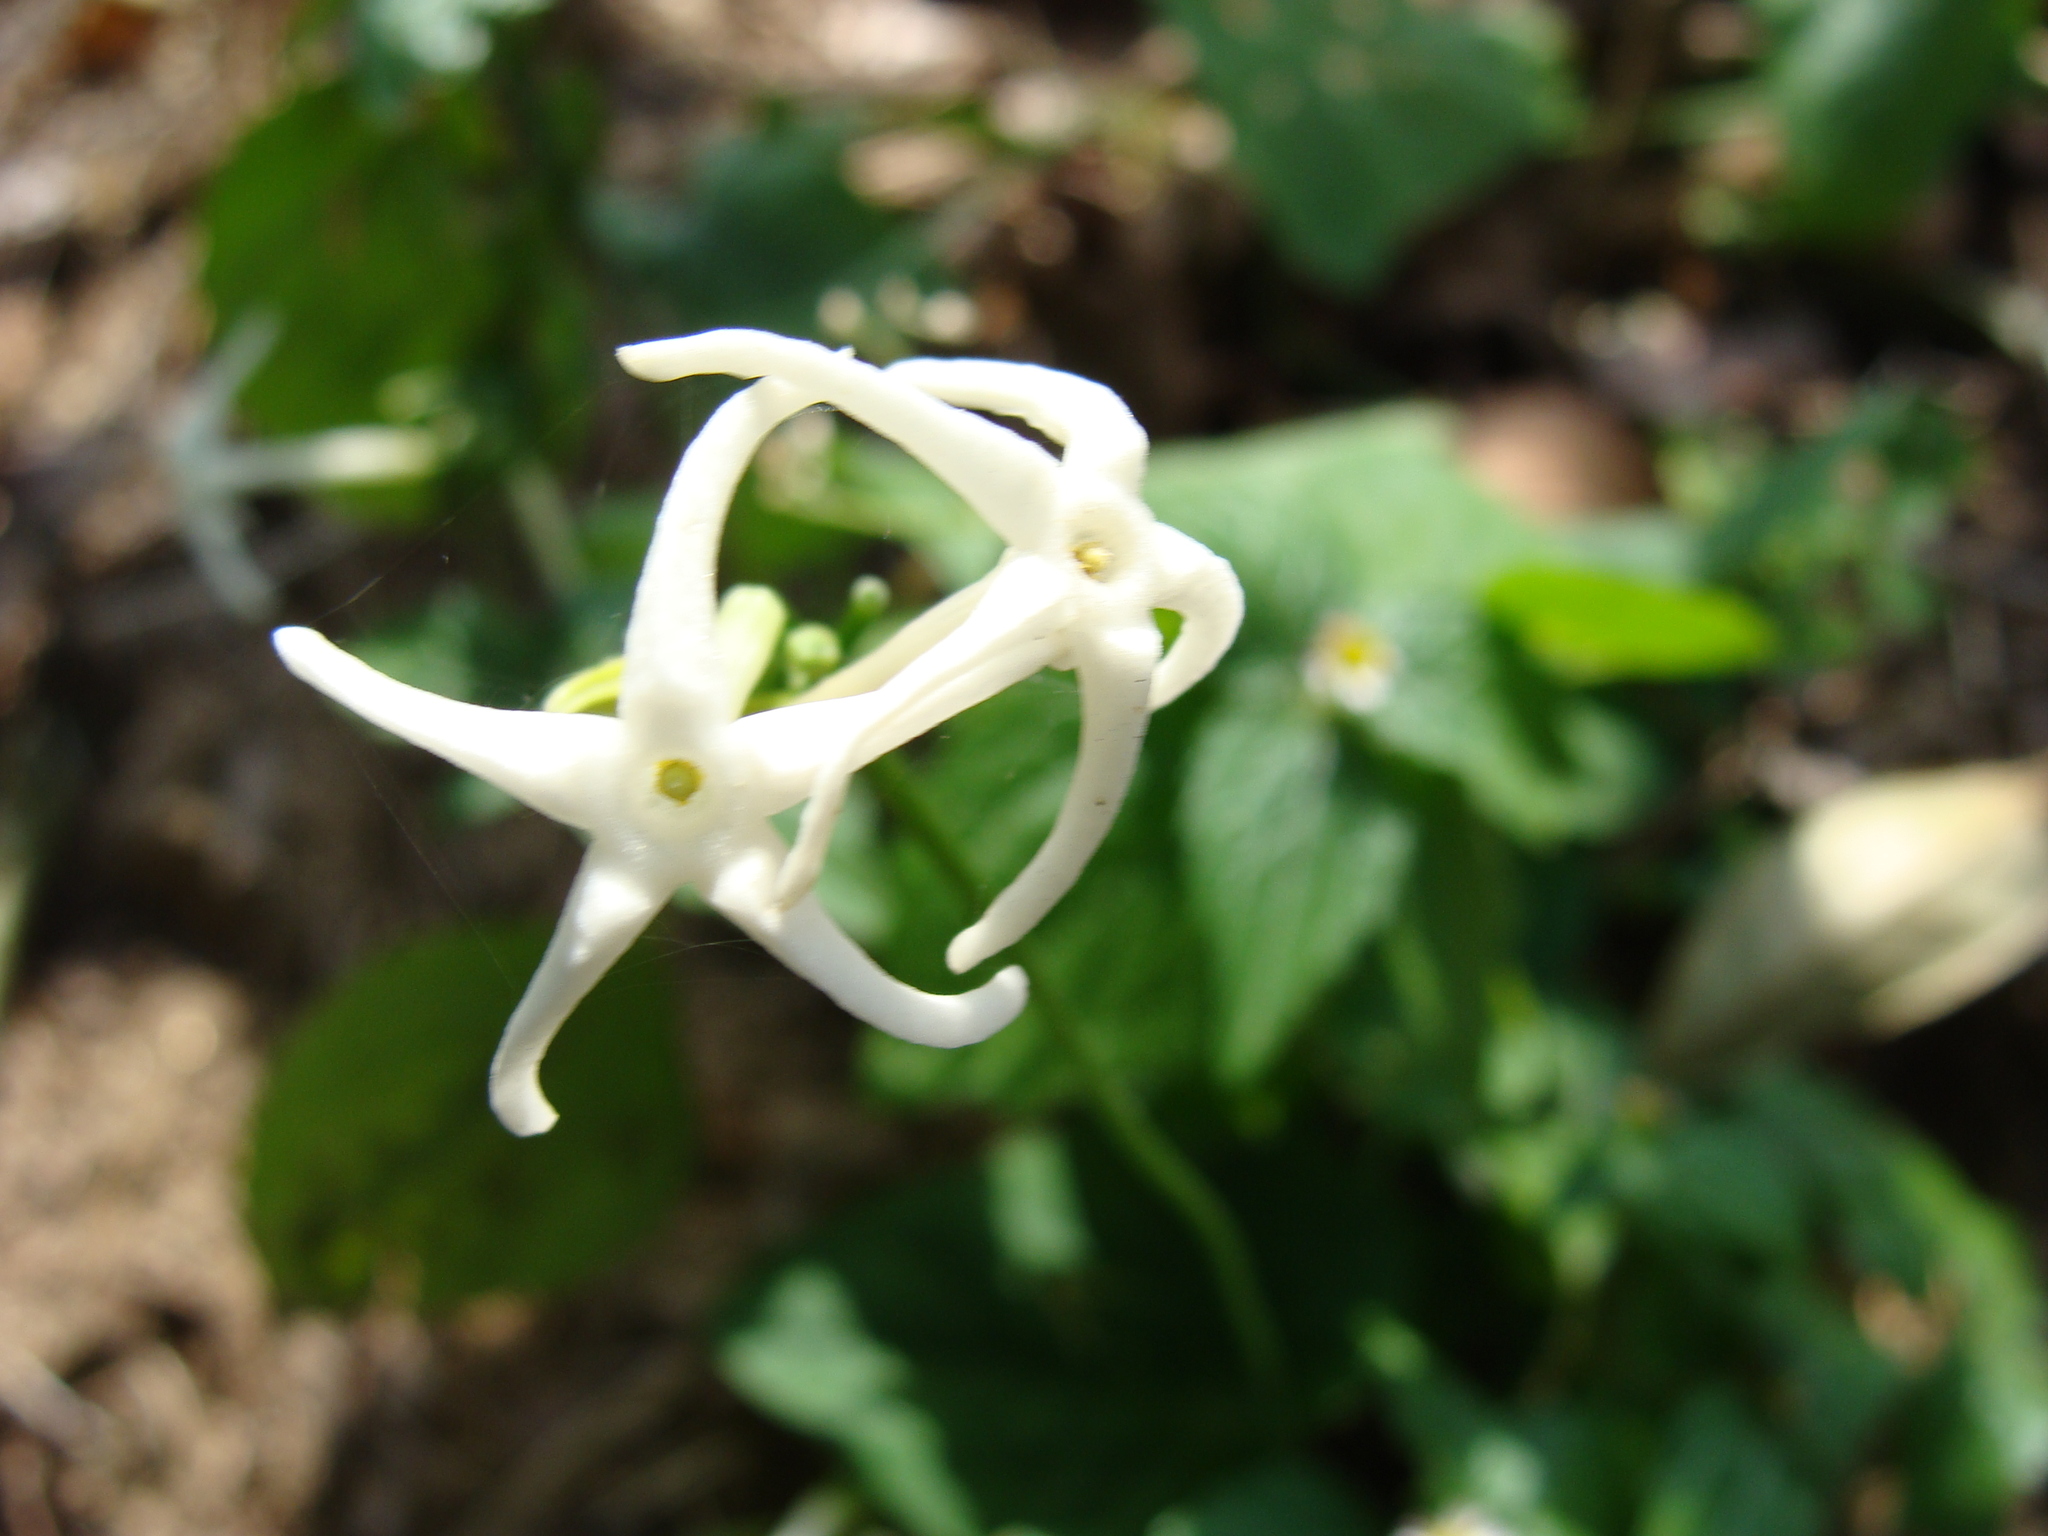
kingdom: Plantae
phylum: Tracheophyta
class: Magnoliopsida
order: Cucurbitales
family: Cucurbitaceae
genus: Cyclanthera
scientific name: Cyclanthera carthagenensis
